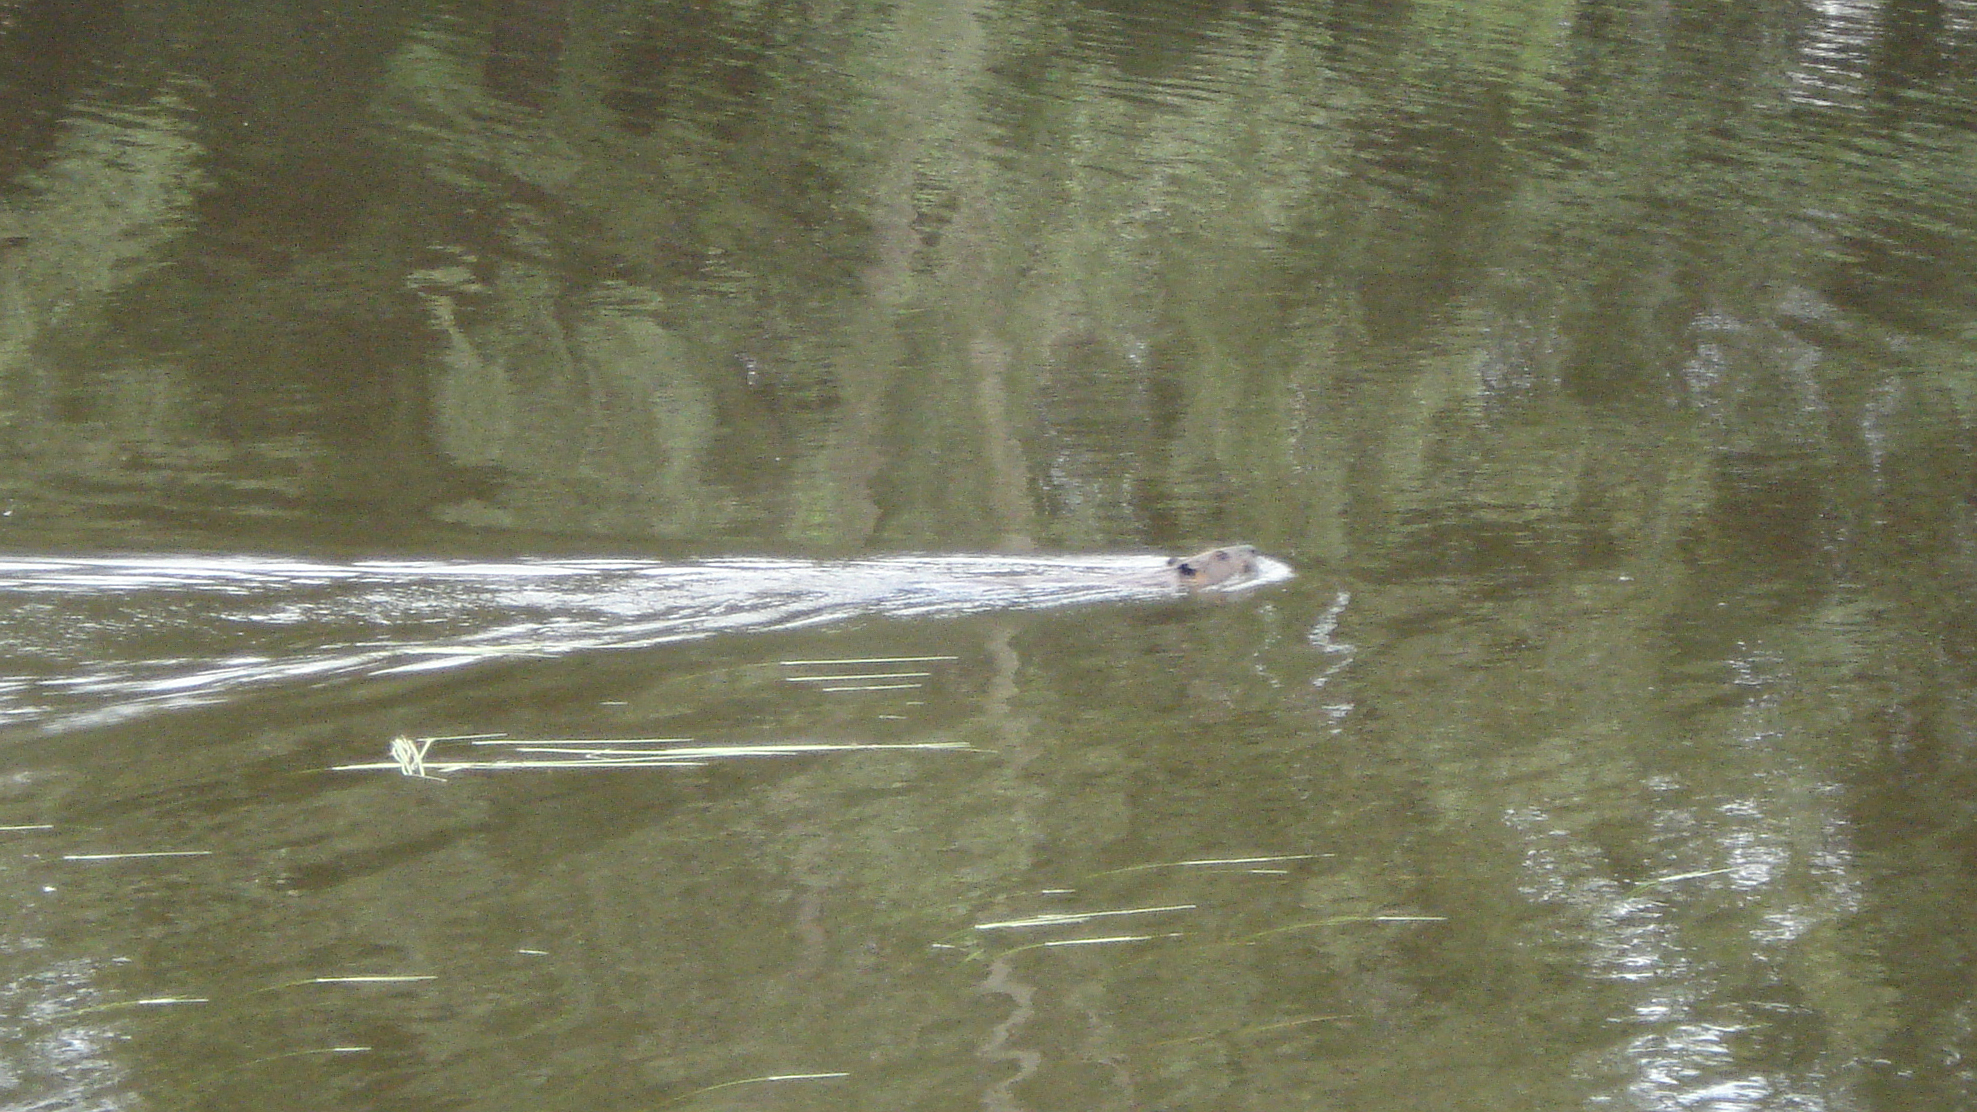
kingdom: Animalia
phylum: Chordata
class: Mammalia
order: Rodentia
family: Castoridae
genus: Castor
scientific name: Castor canadensis
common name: American beaver
